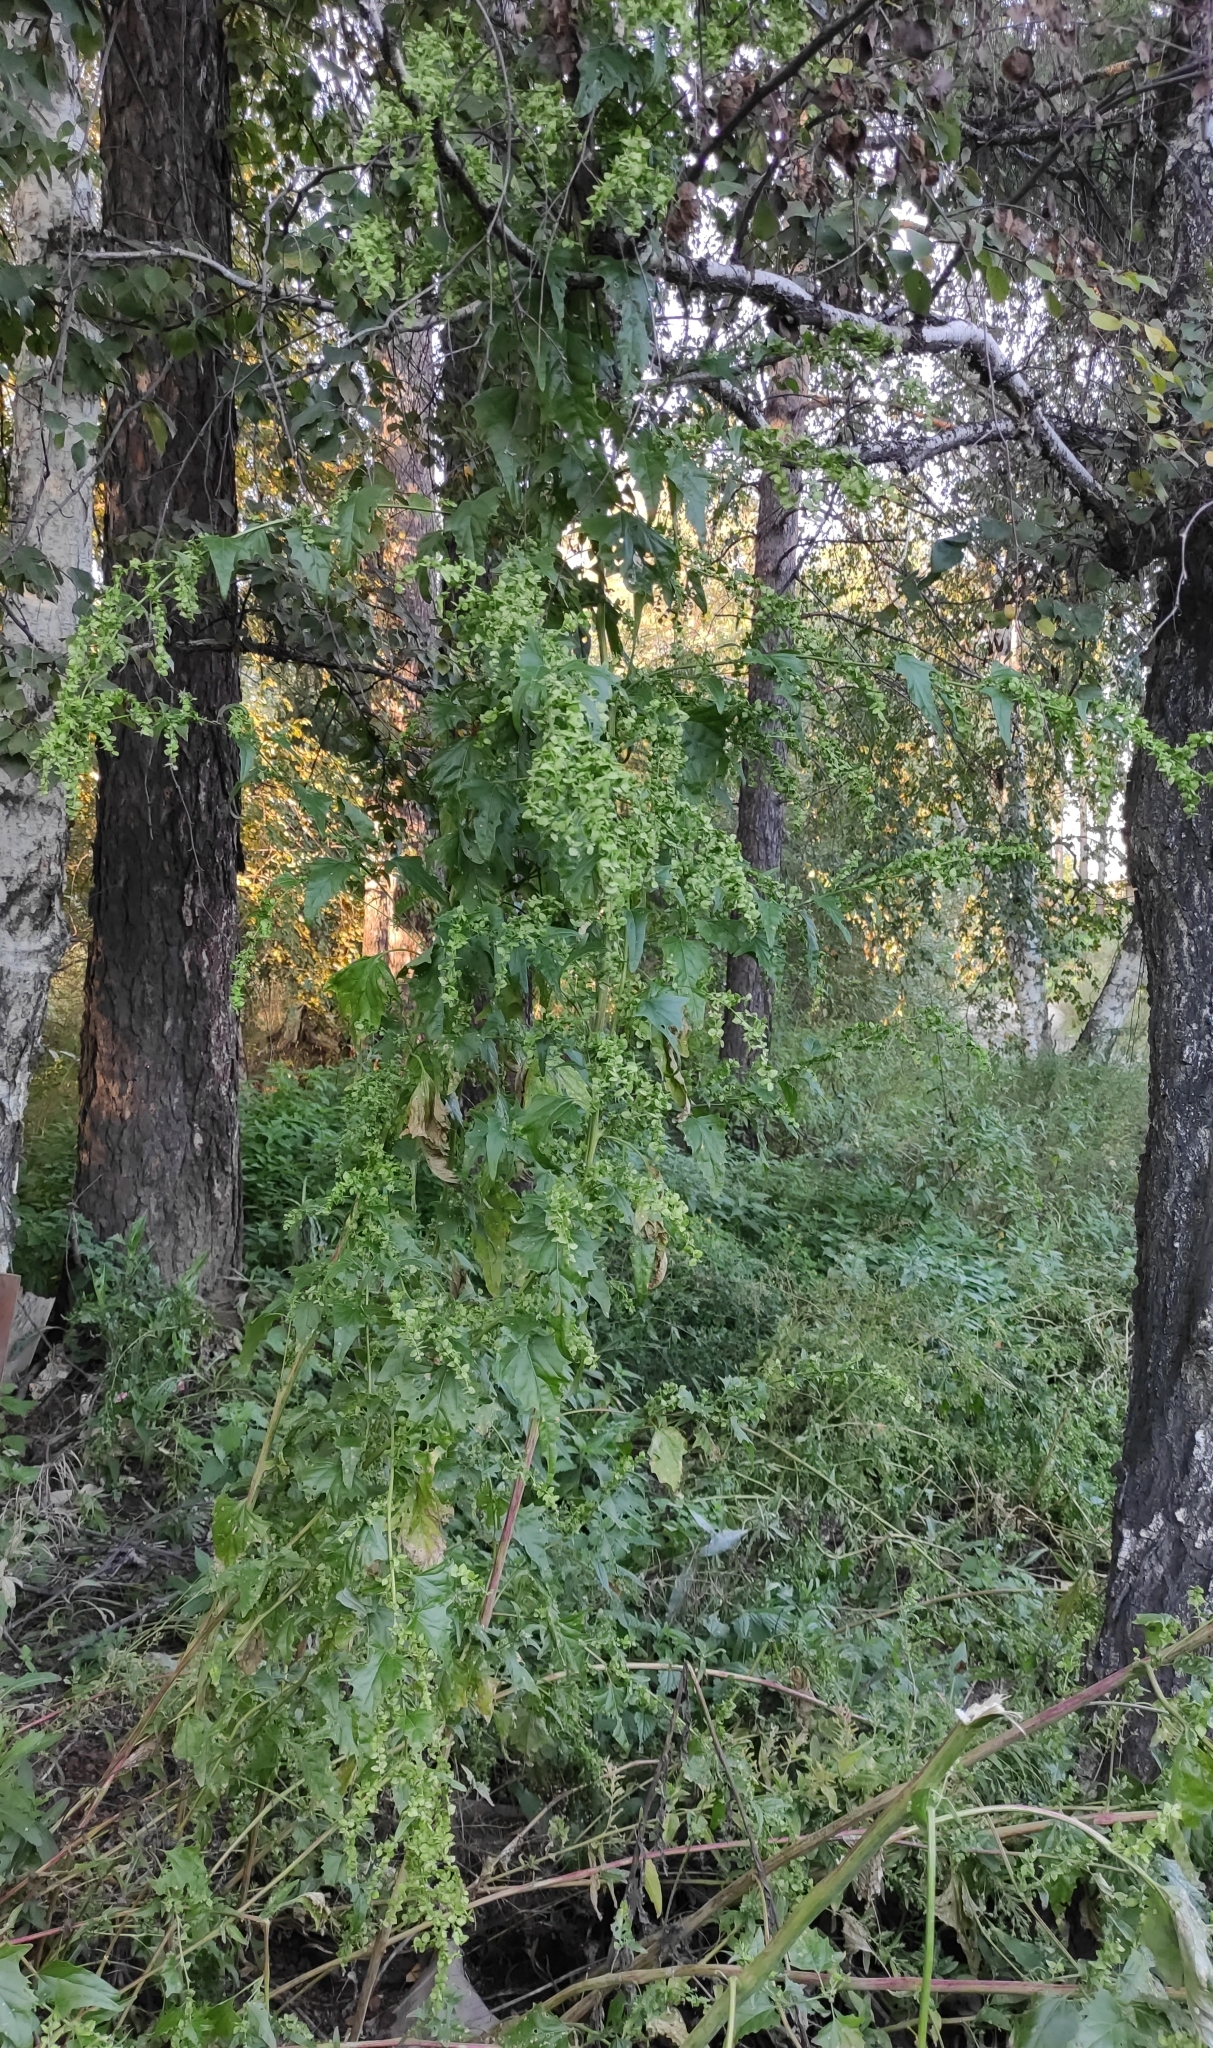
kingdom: Plantae
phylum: Tracheophyta
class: Magnoliopsida
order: Caryophyllales
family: Amaranthaceae
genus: Atriplex
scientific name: Atriplex sagittata
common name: Purple orache
